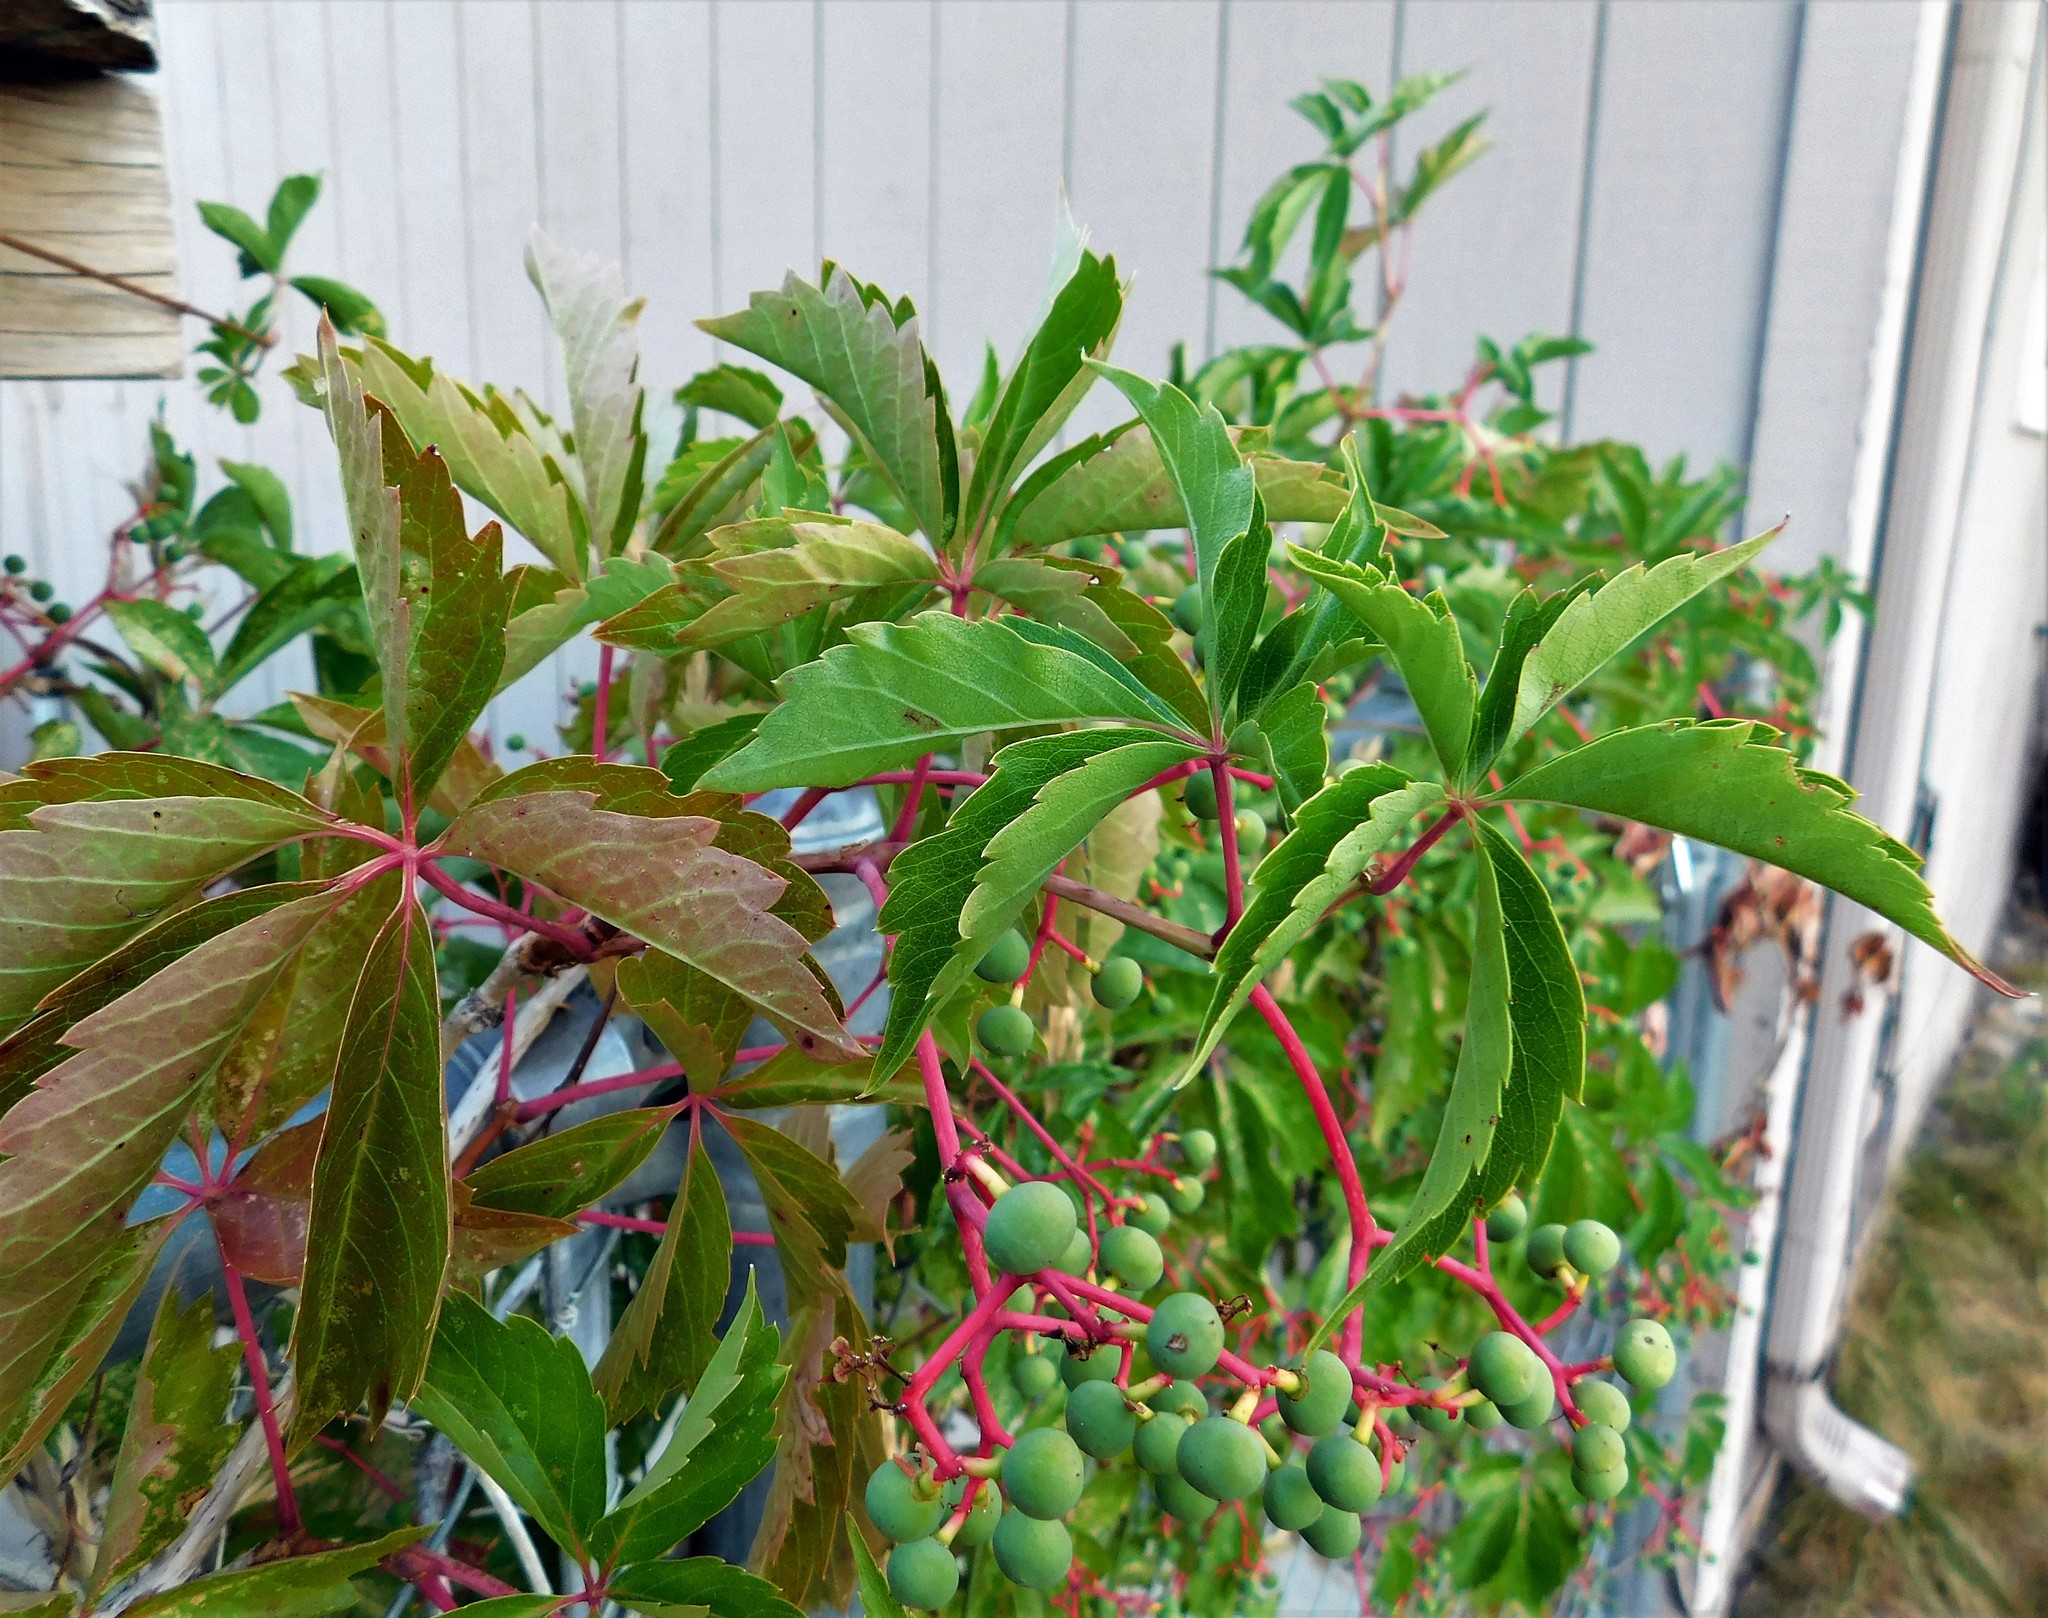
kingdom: Plantae
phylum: Tracheophyta
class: Magnoliopsida
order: Vitales
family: Vitaceae
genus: Parthenocissus
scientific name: Parthenocissus quinquefolia
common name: Virginia-creeper
